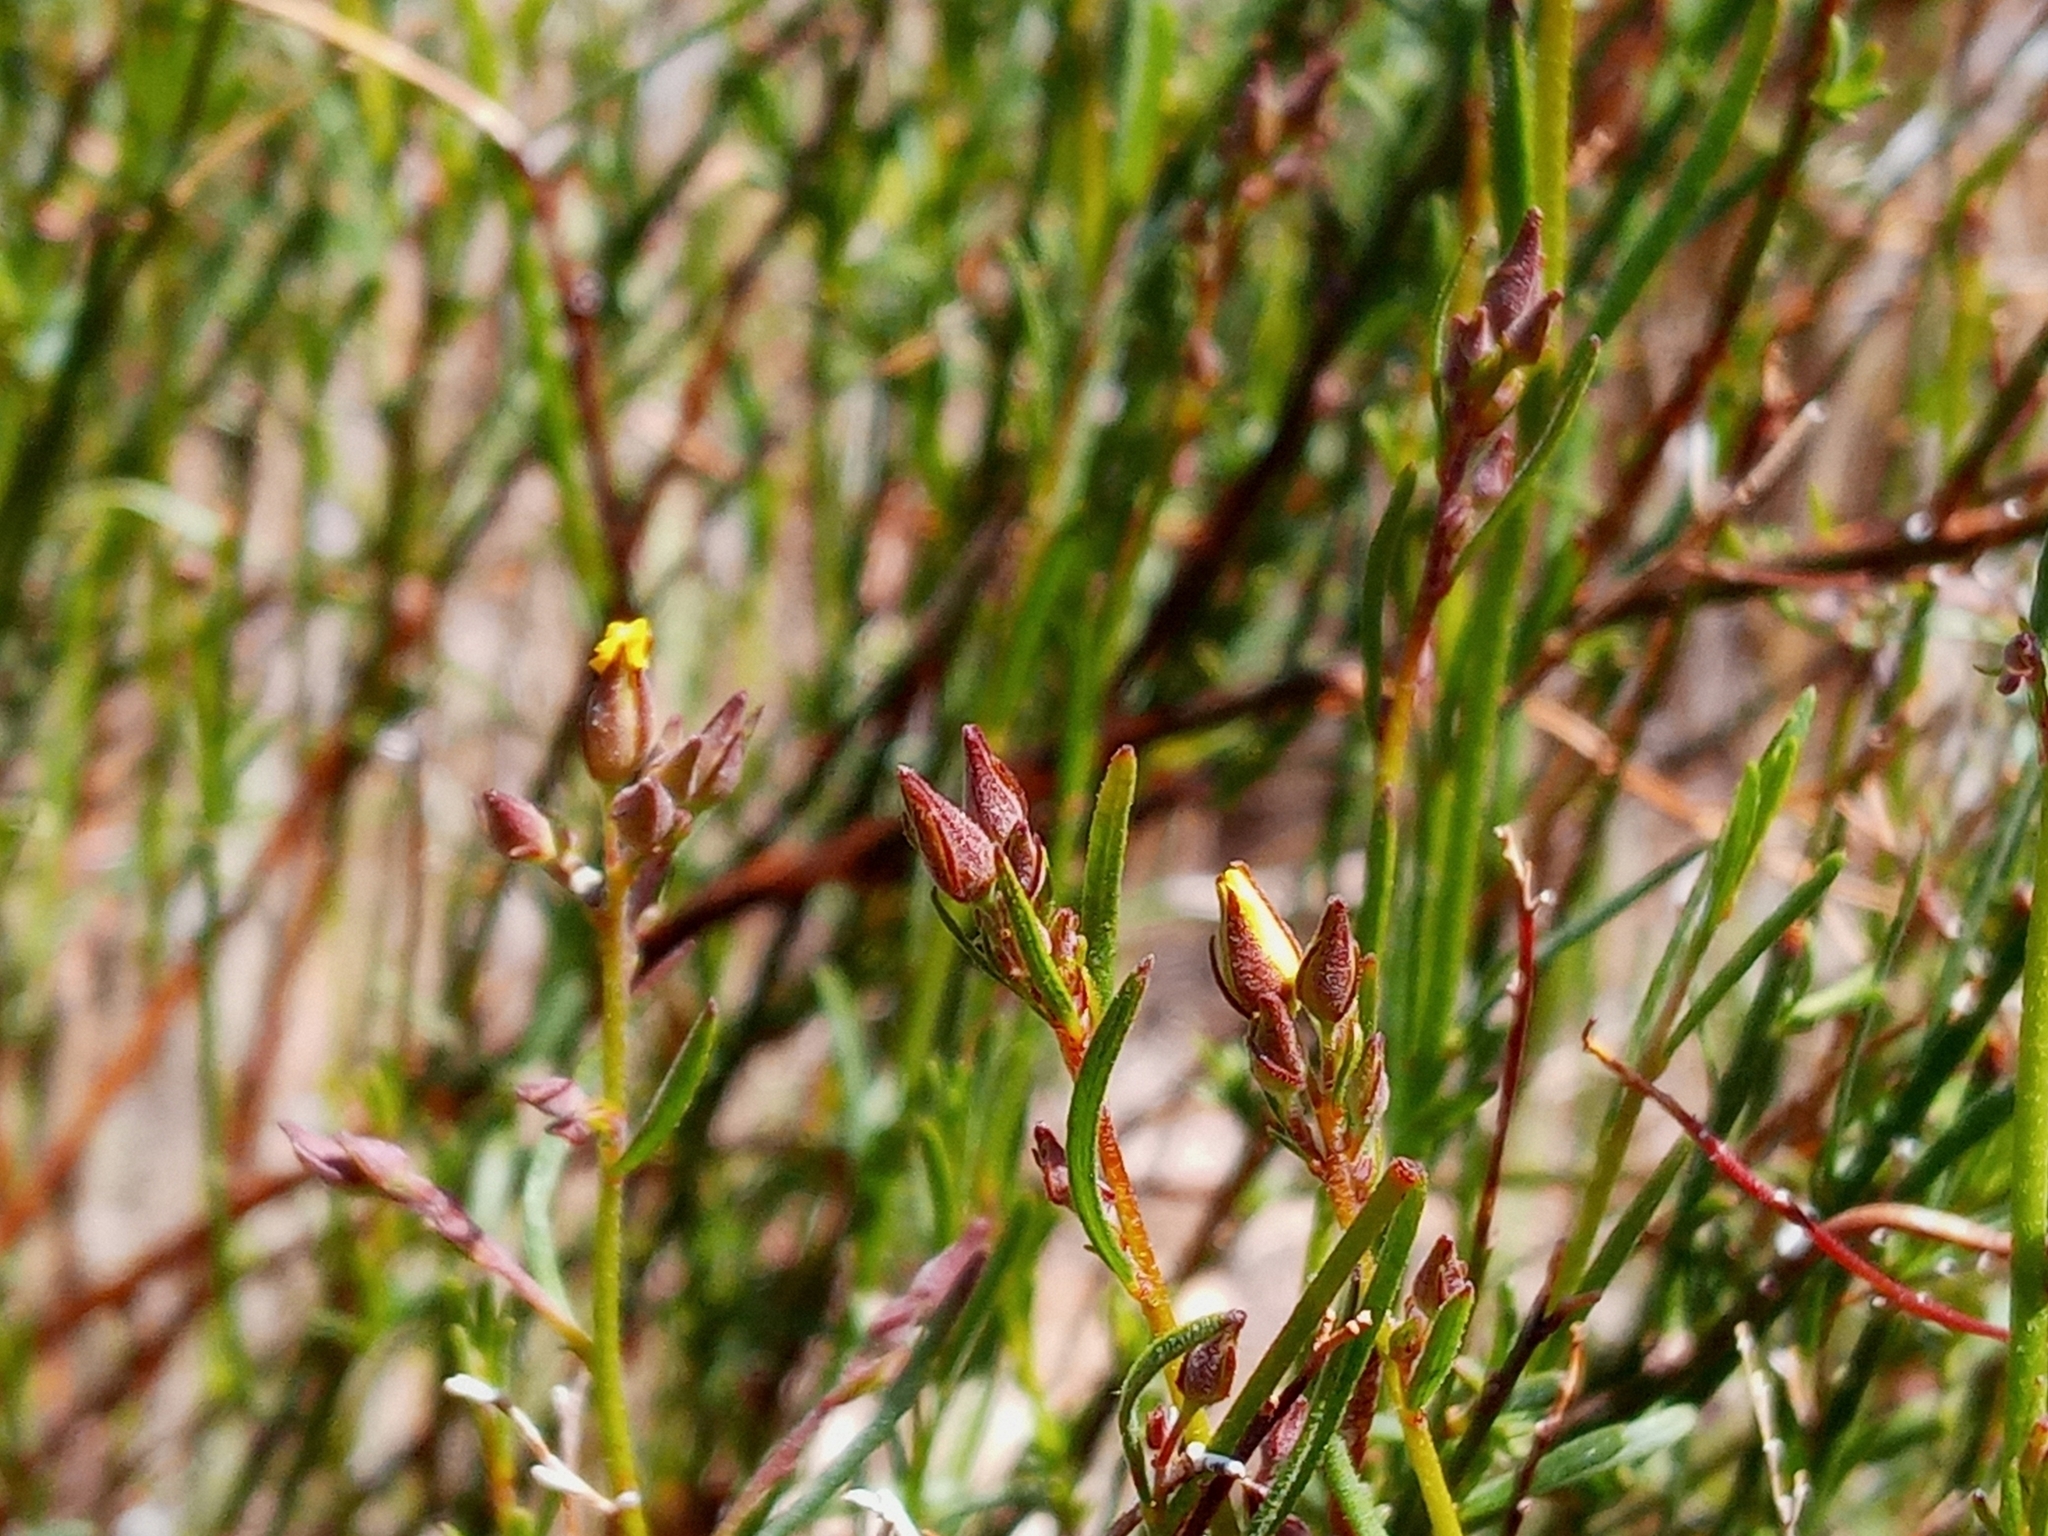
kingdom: Plantae
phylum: Tracheophyta
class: Magnoliopsida
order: Malvales
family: Cistaceae
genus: Crocanthemum
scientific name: Crocanthemum scoparium
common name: Broom-rose
